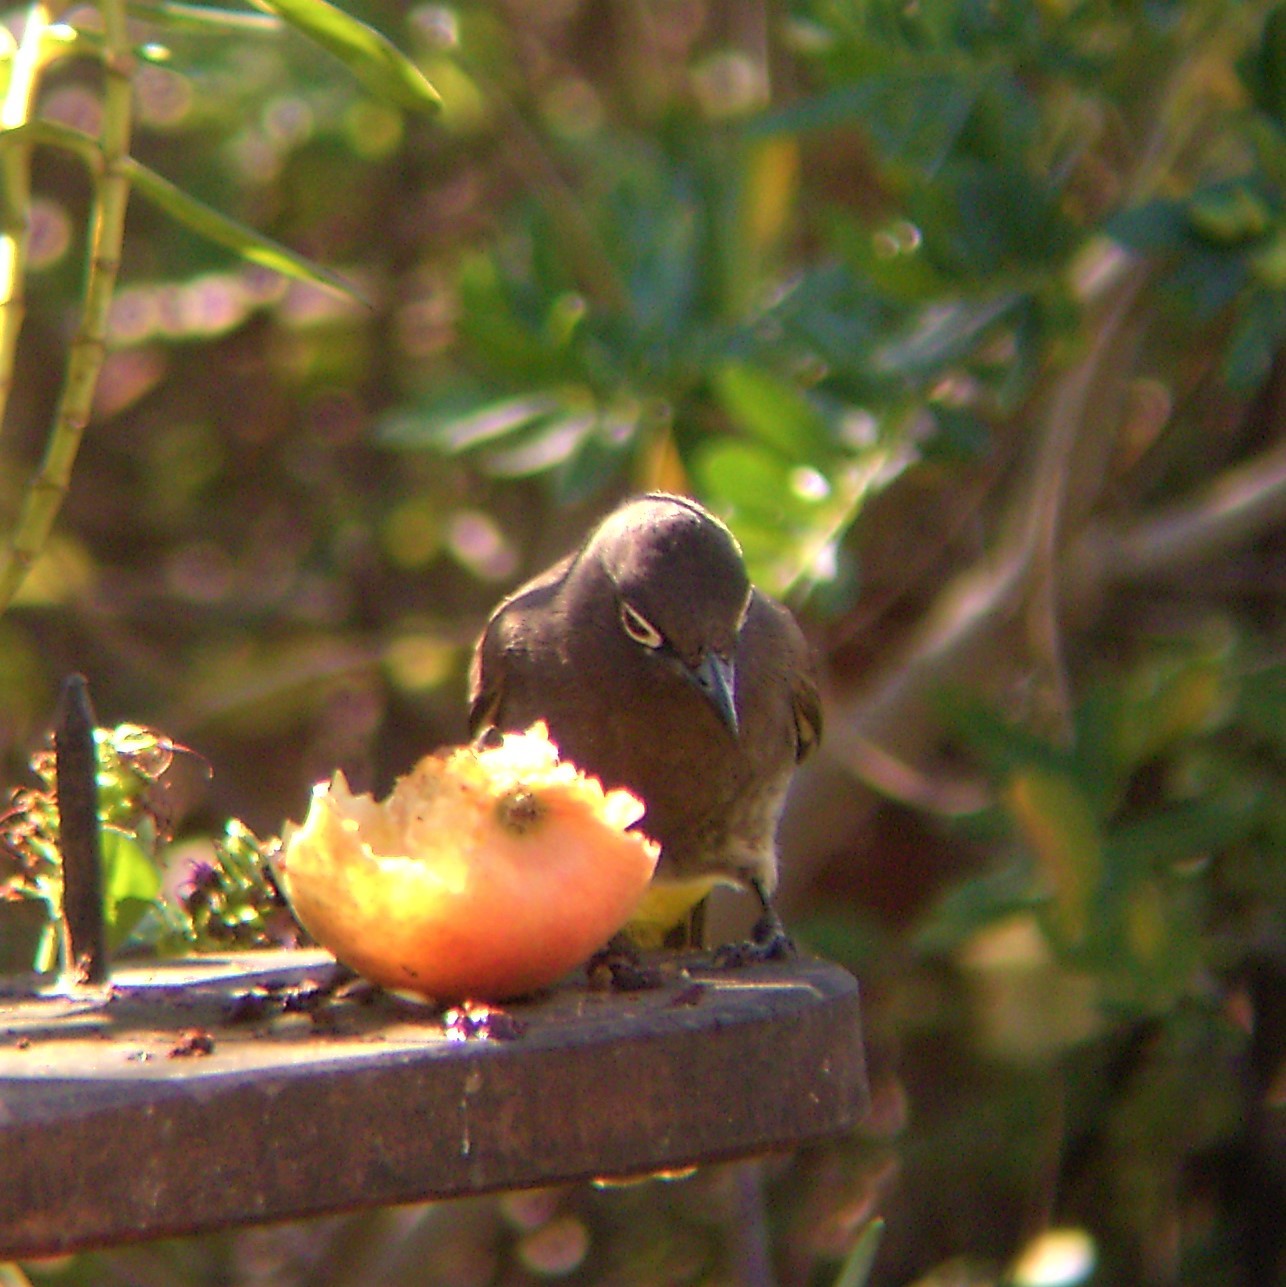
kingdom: Animalia
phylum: Chordata
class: Aves
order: Passeriformes
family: Pycnonotidae
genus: Pycnonotus
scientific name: Pycnonotus capensis
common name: Cape bulbul
